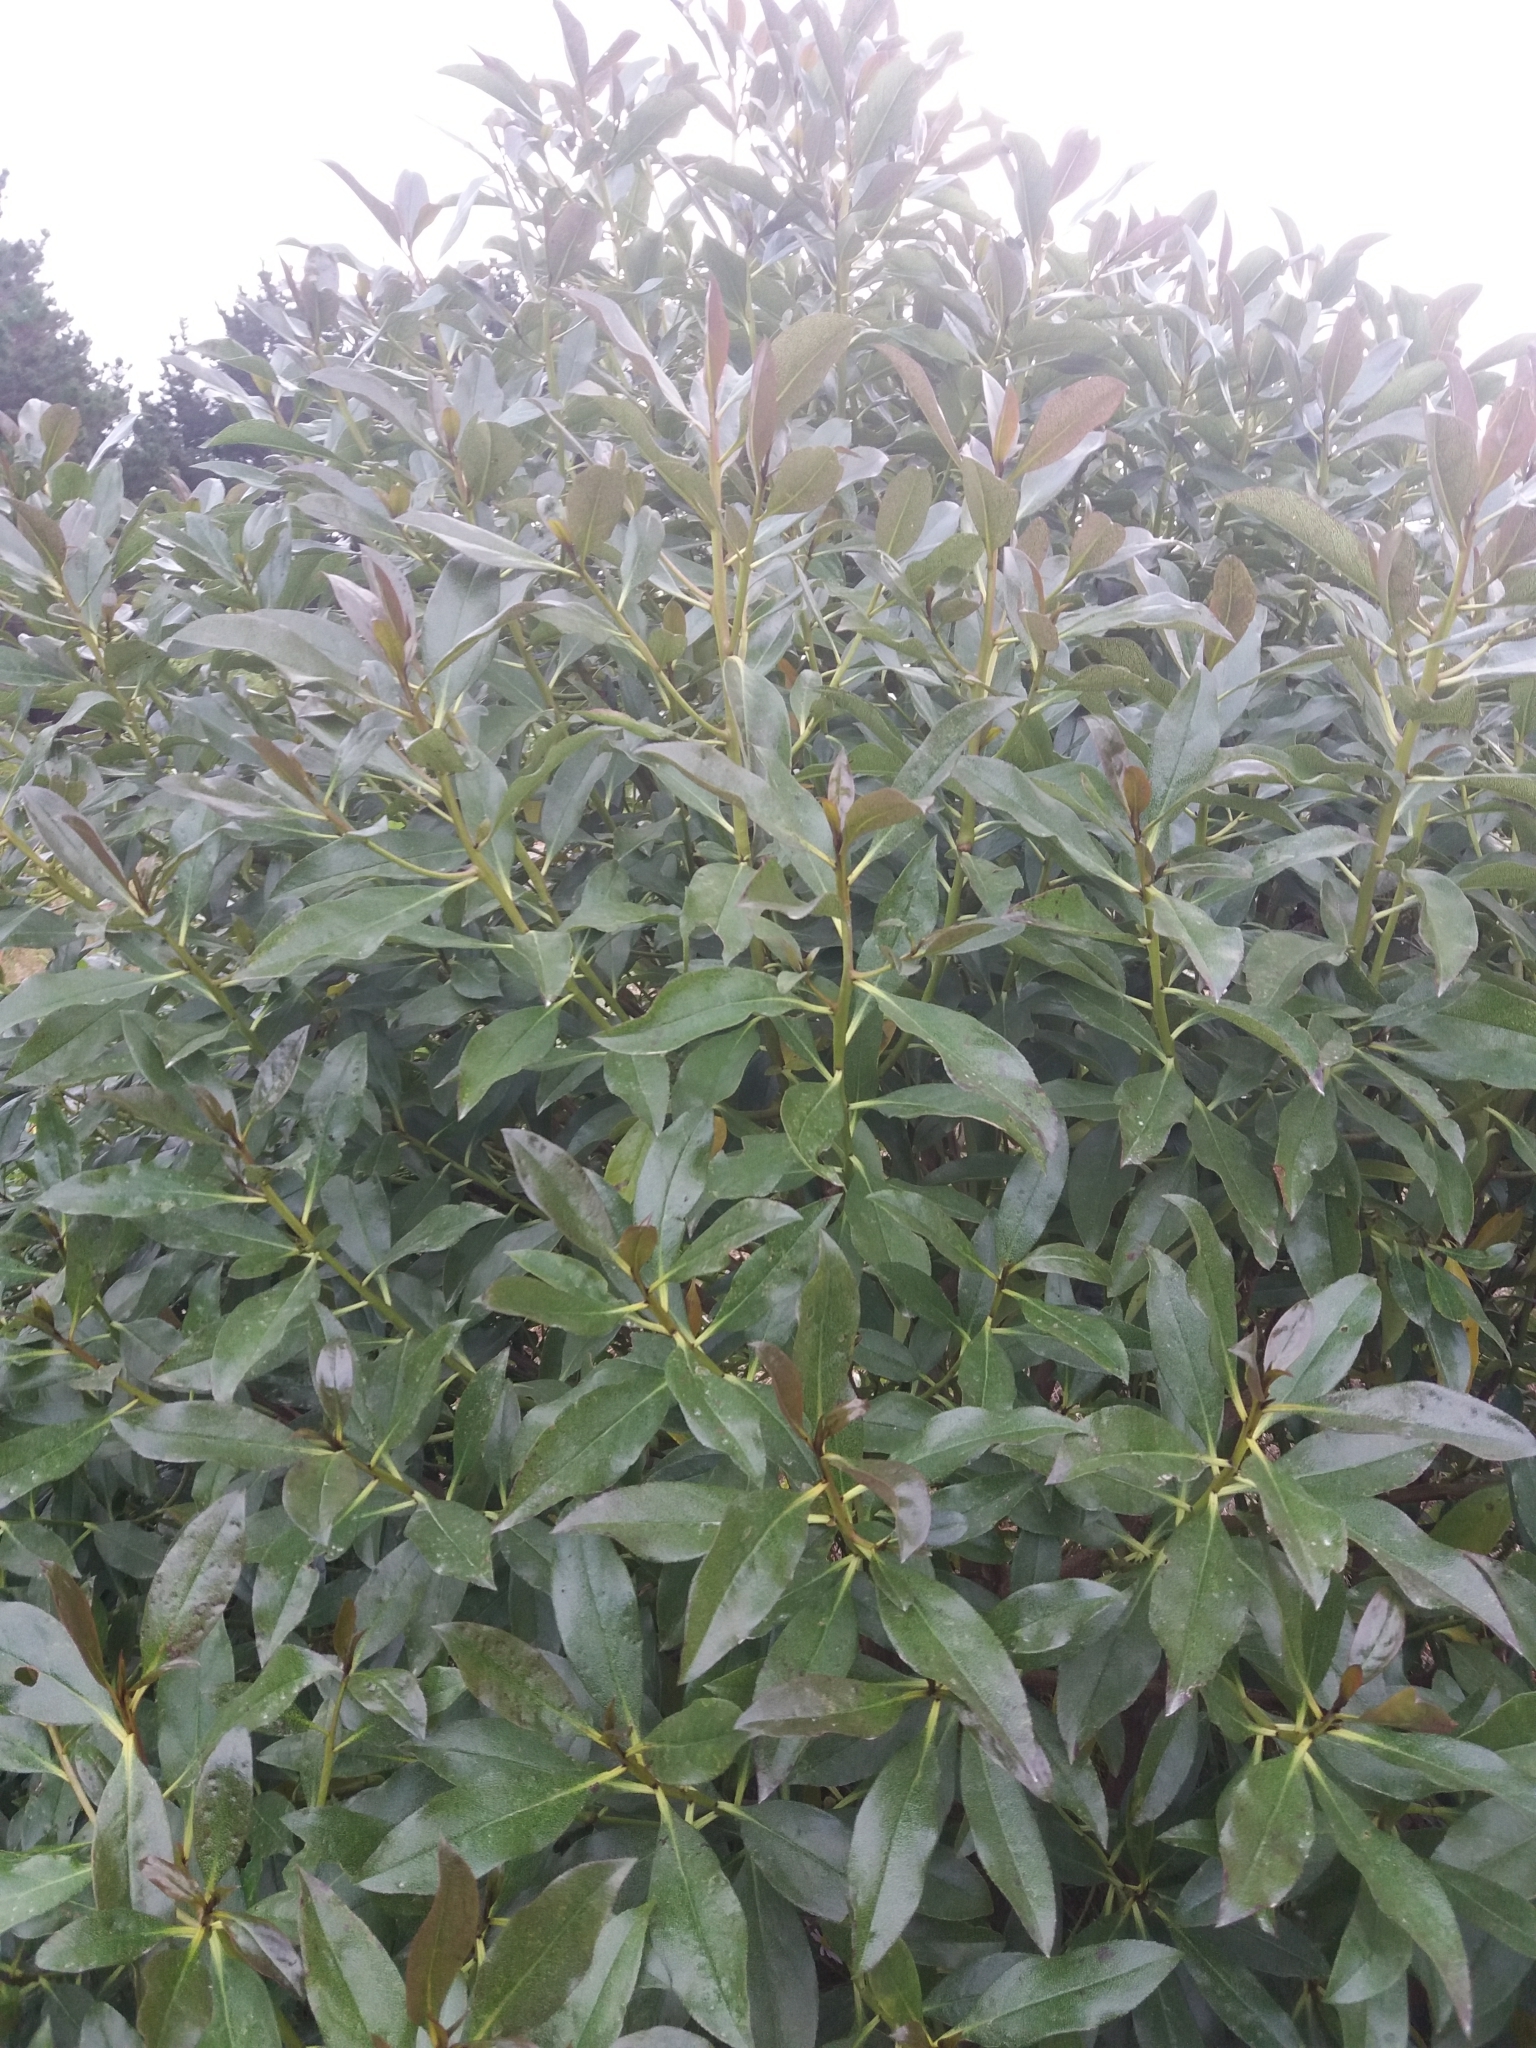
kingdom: Plantae
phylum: Tracheophyta
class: Magnoliopsida
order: Lamiales
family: Scrophulariaceae
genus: Myoporum
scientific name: Myoporum laetum
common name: Ngaio tree
